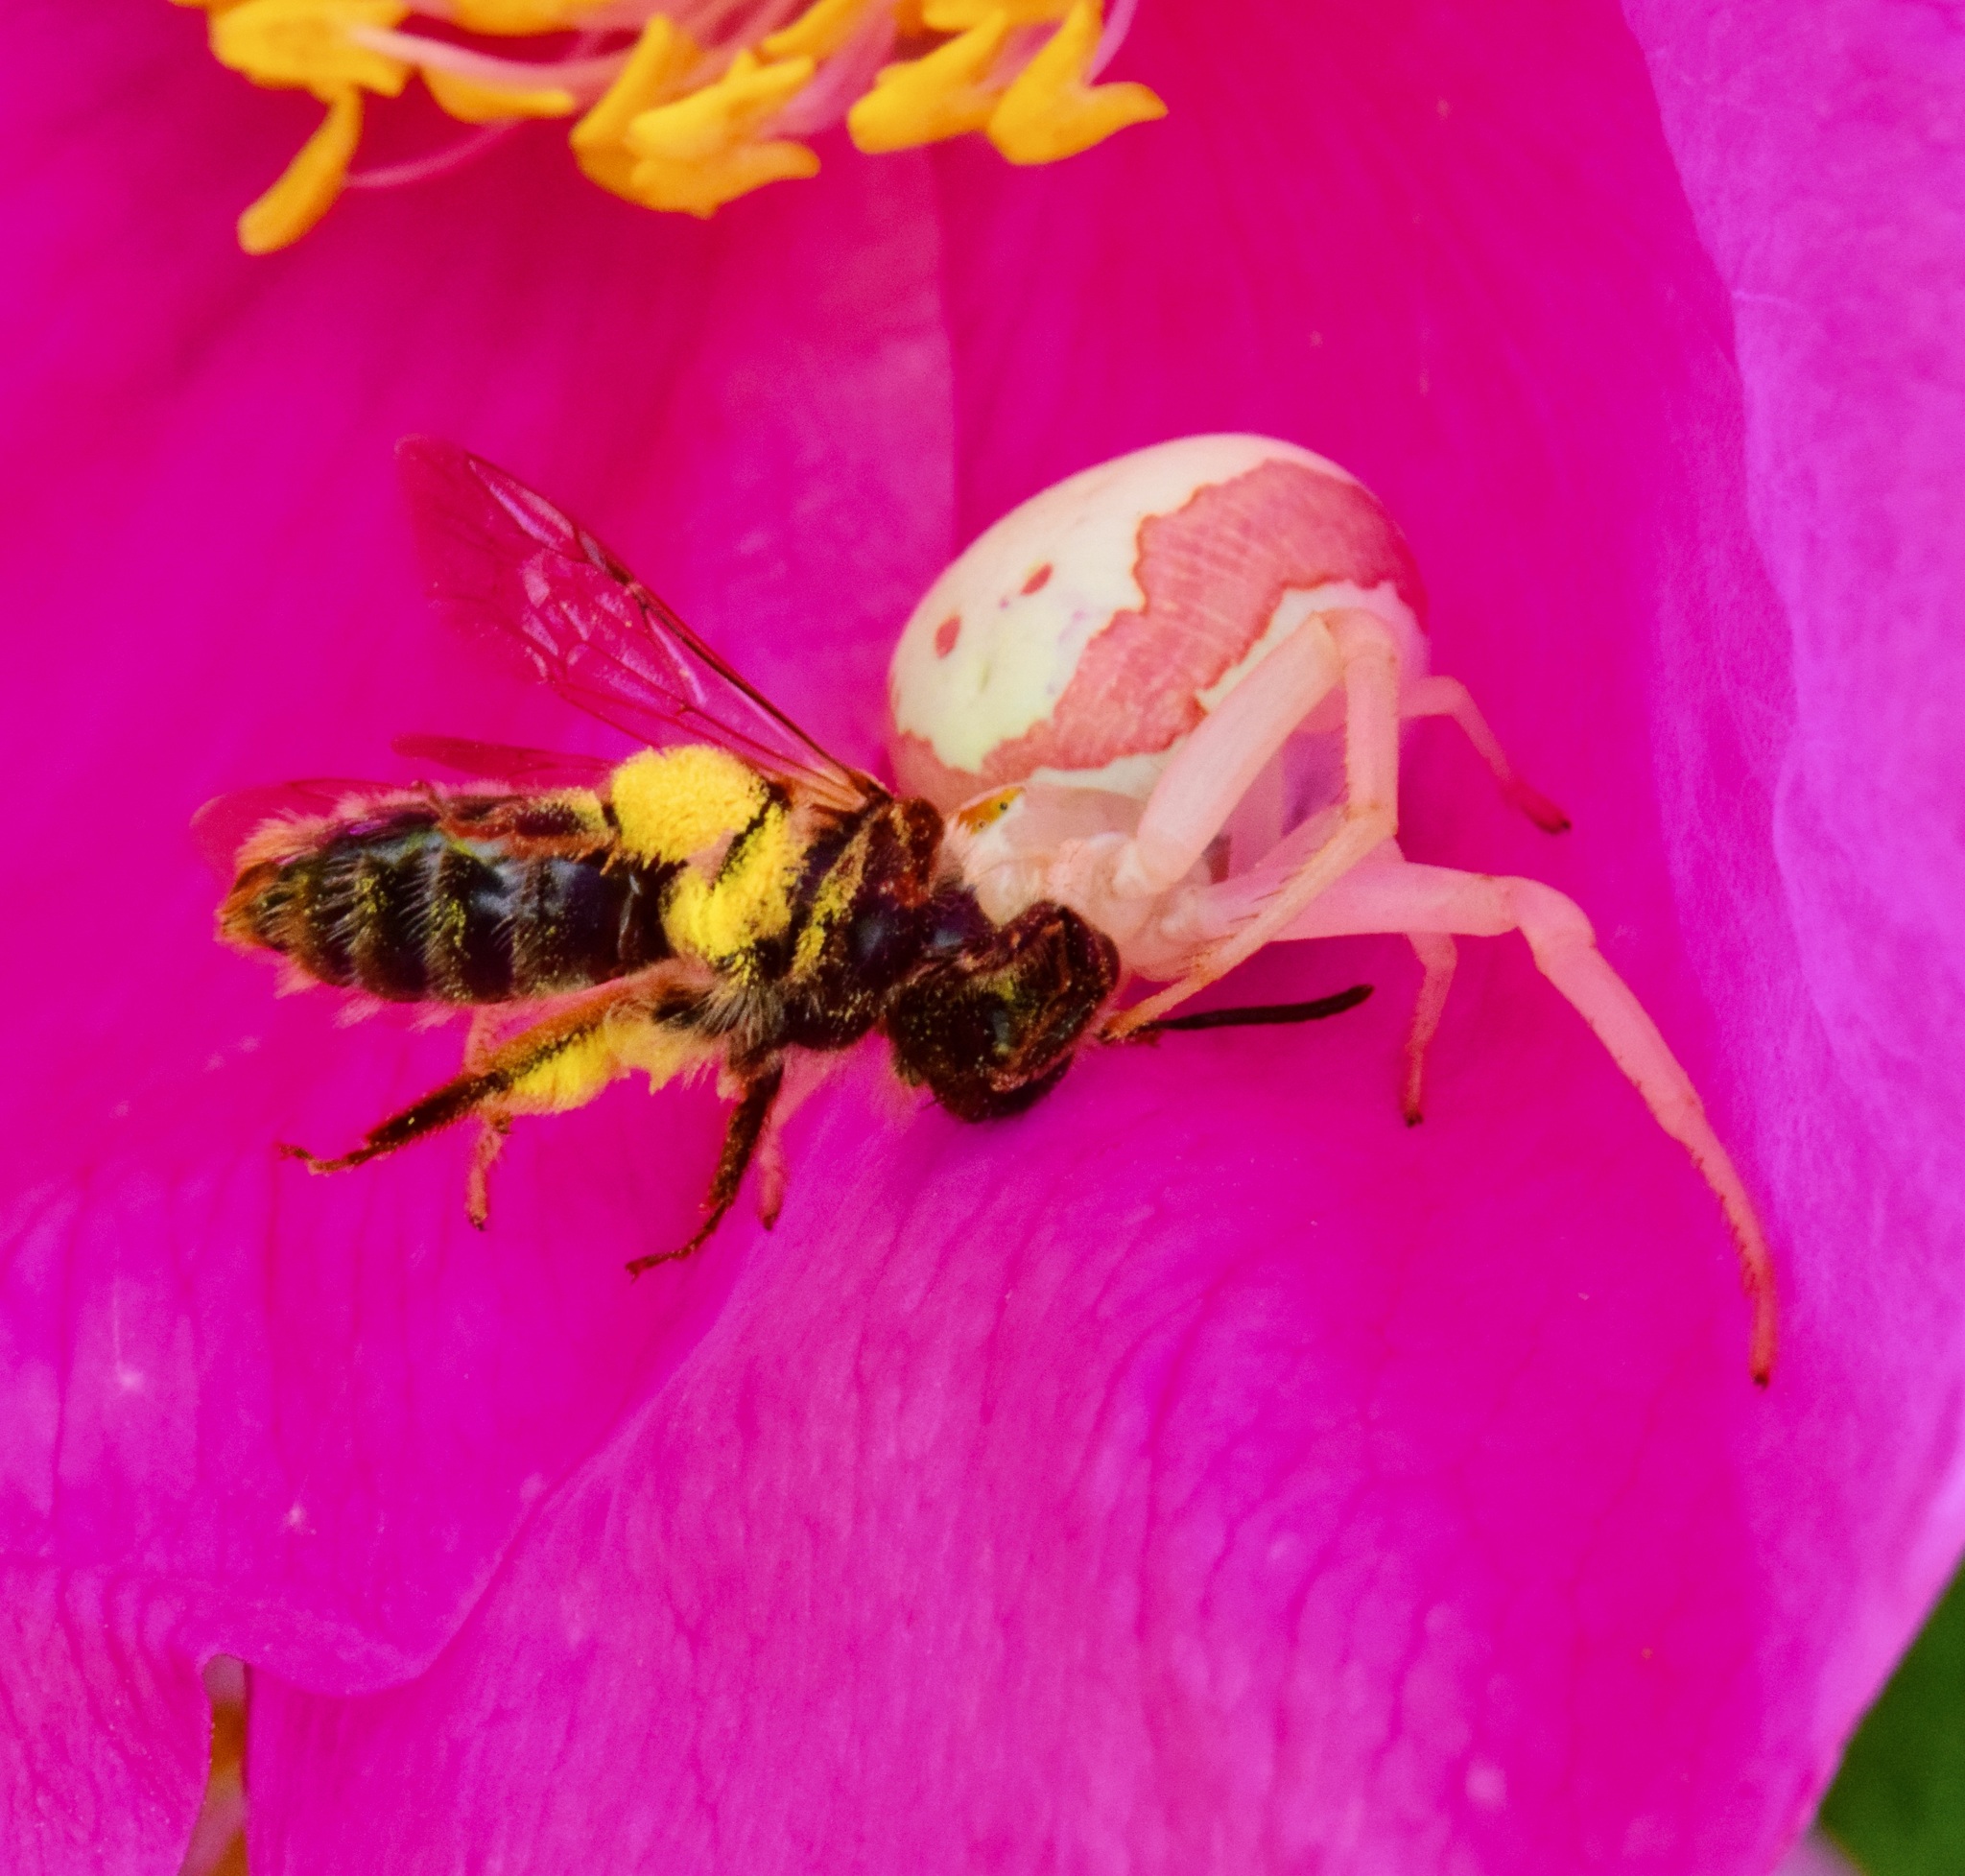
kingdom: Animalia
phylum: Arthropoda
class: Arachnida
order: Araneae
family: Thomisidae
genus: Misumena
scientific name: Misumena vatia
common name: Goldenrod crab spider
